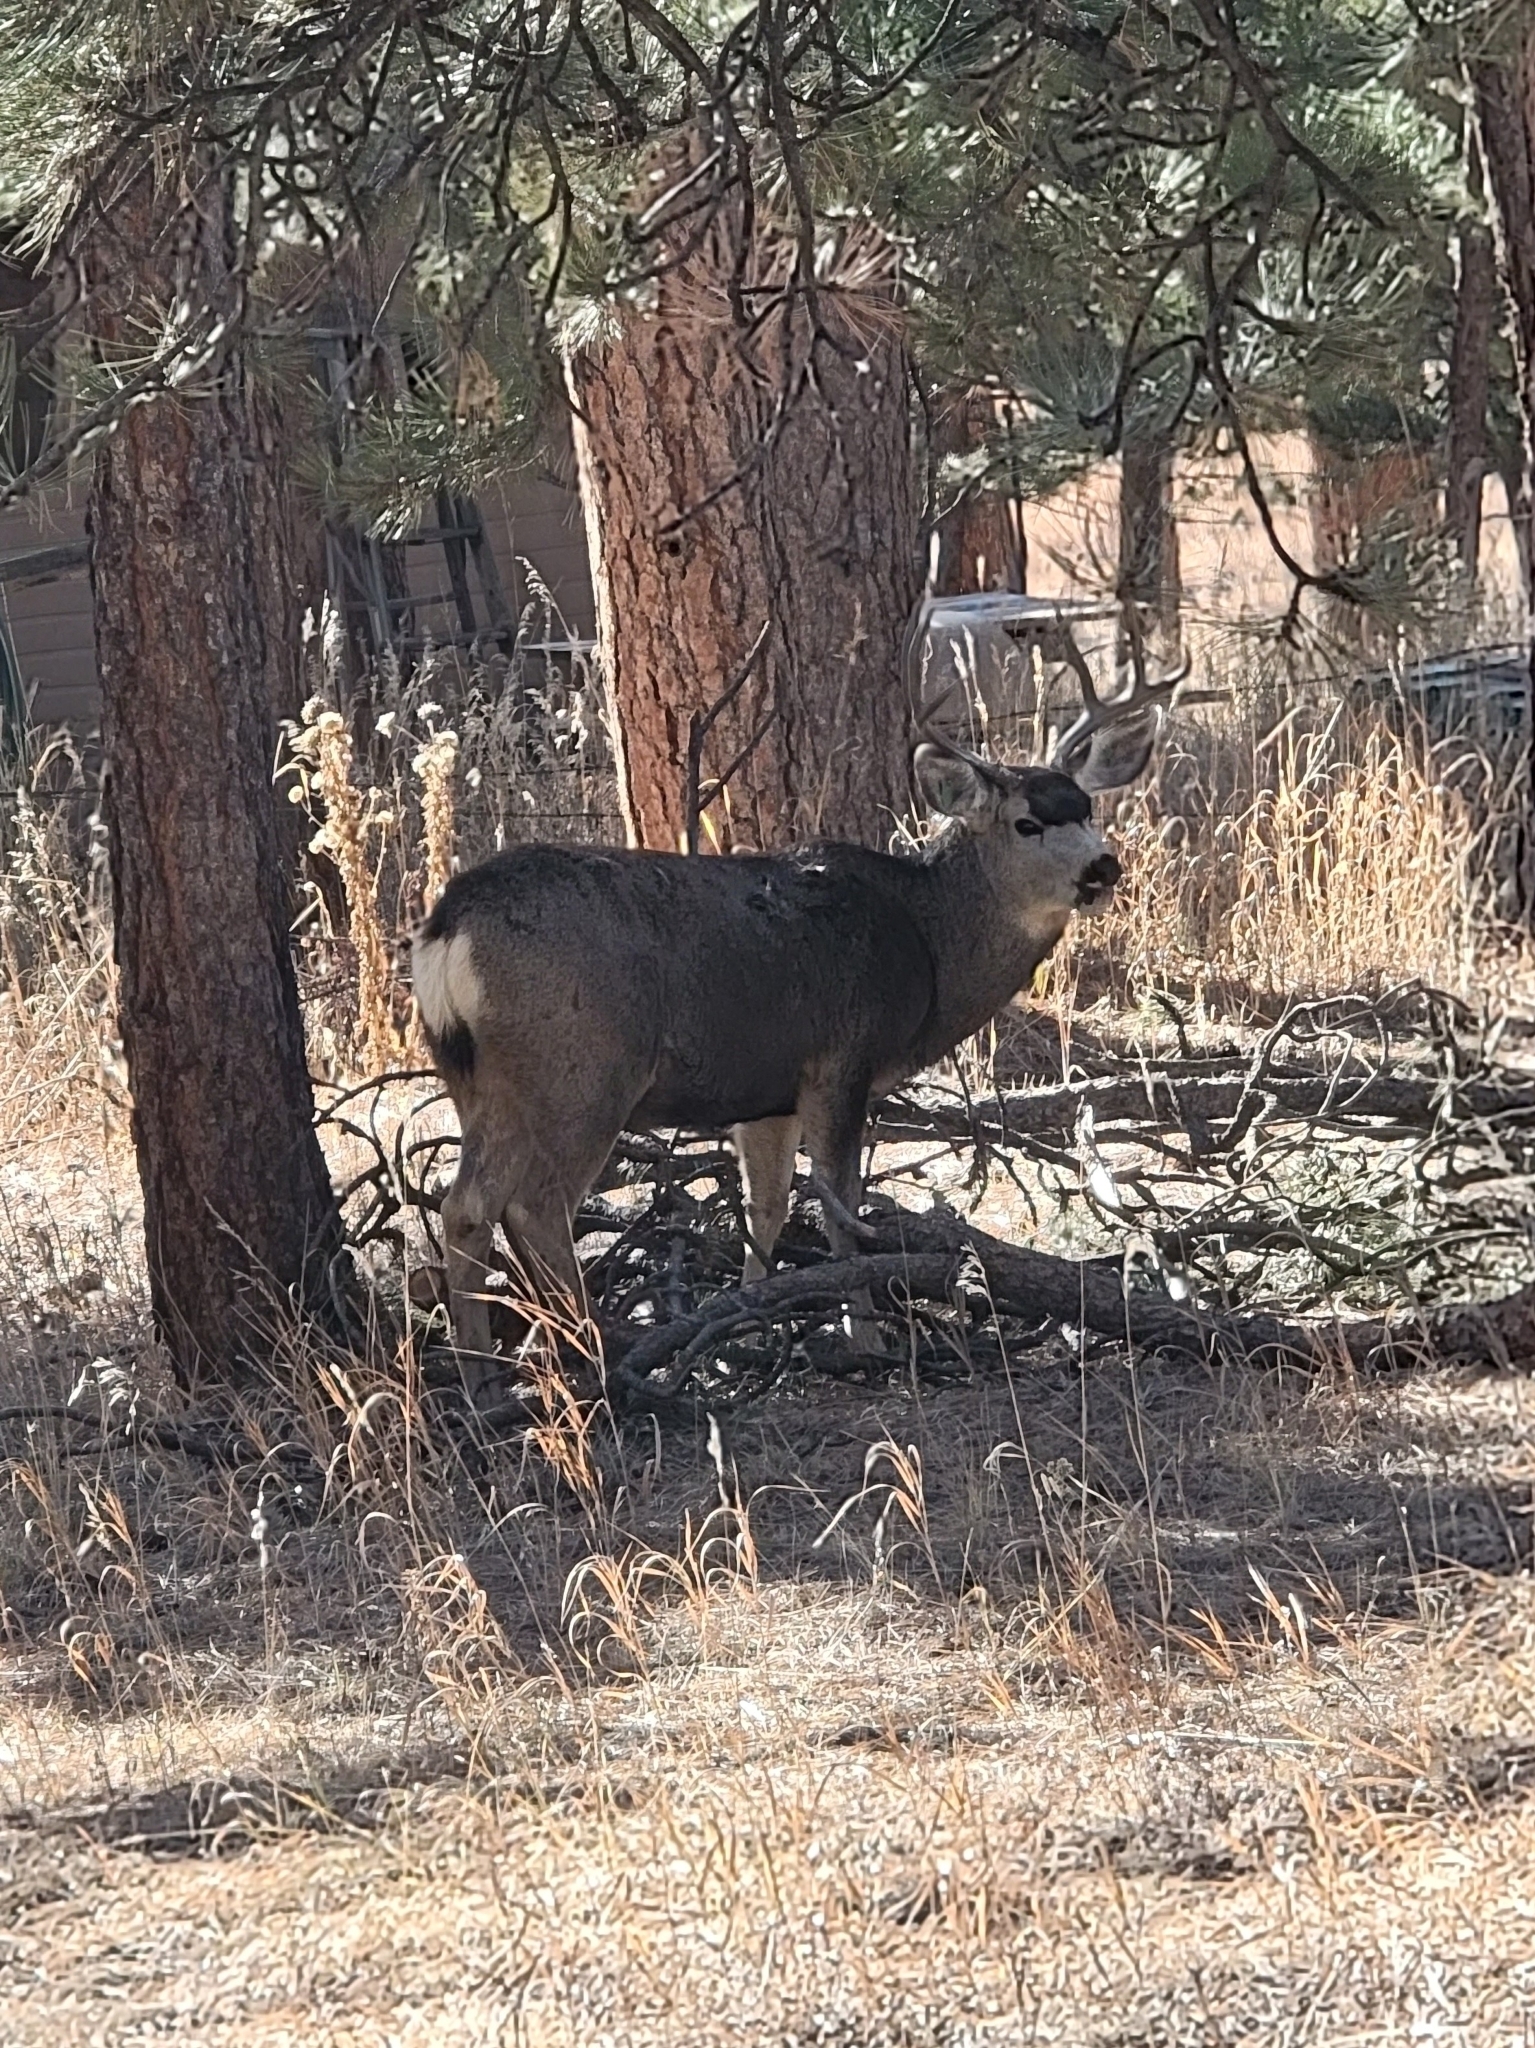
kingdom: Animalia
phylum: Chordata
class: Mammalia
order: Artiodactyla
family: Cervidae
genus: Odocoileus
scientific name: Odocoileus hemionus
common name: Mule deer
